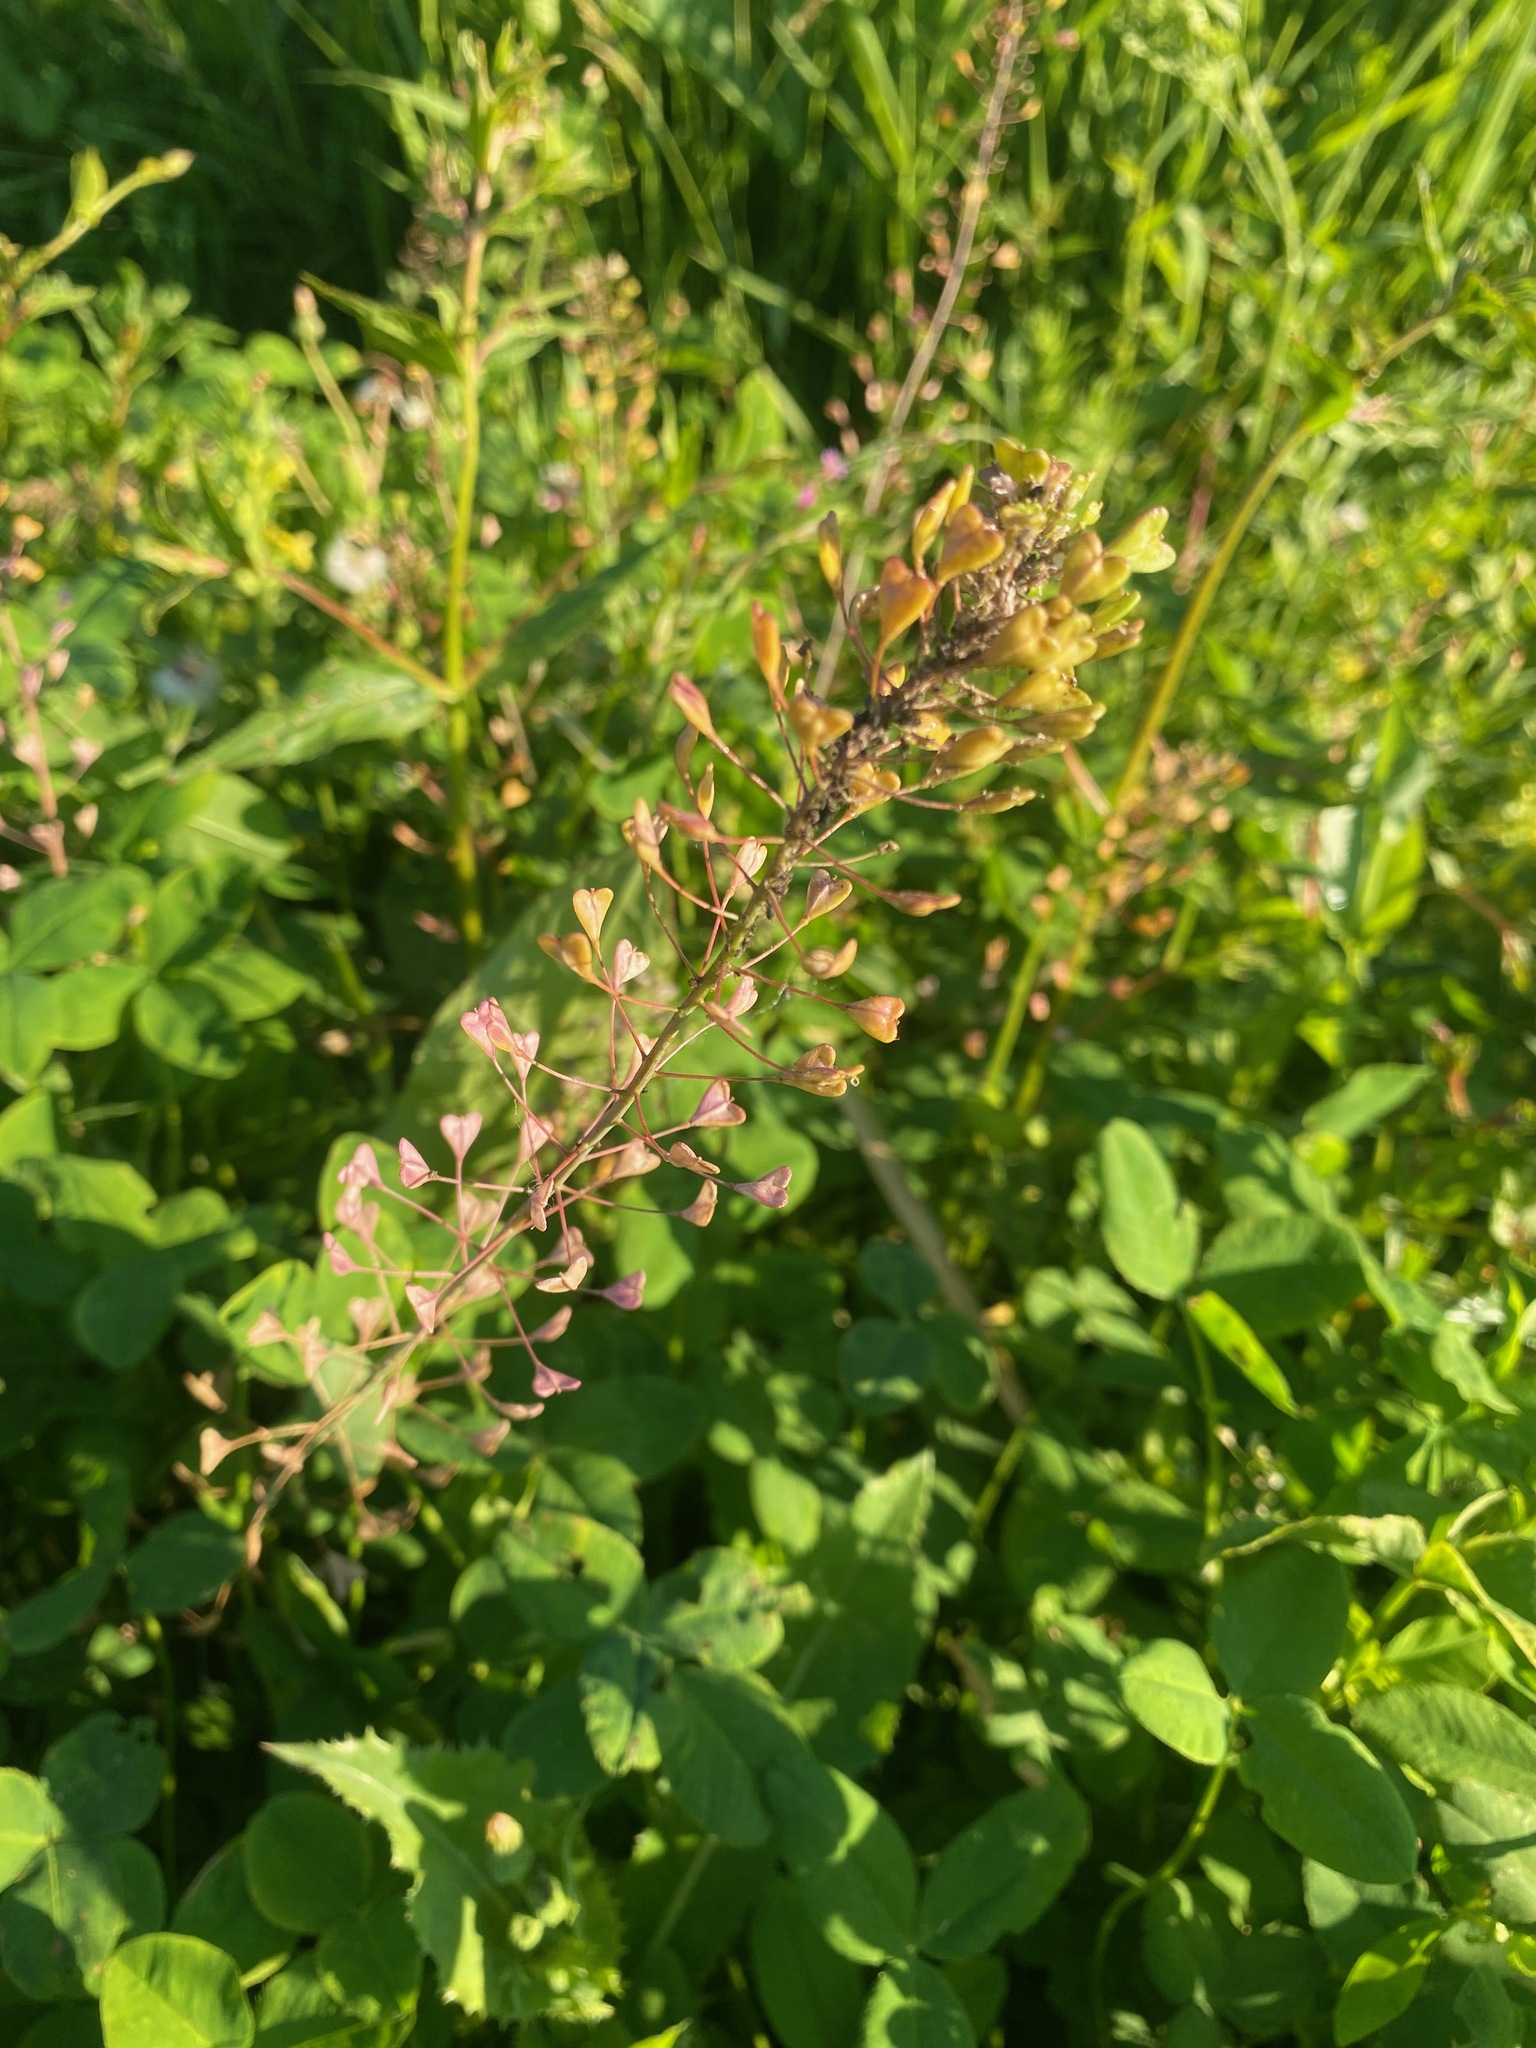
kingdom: Plantae
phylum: Tracheophyta
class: Magnoliopsida
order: Brassicales
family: Brassicaceae
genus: Capsella
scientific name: Capsella bursa-pastoris
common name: Shepherd's purse
